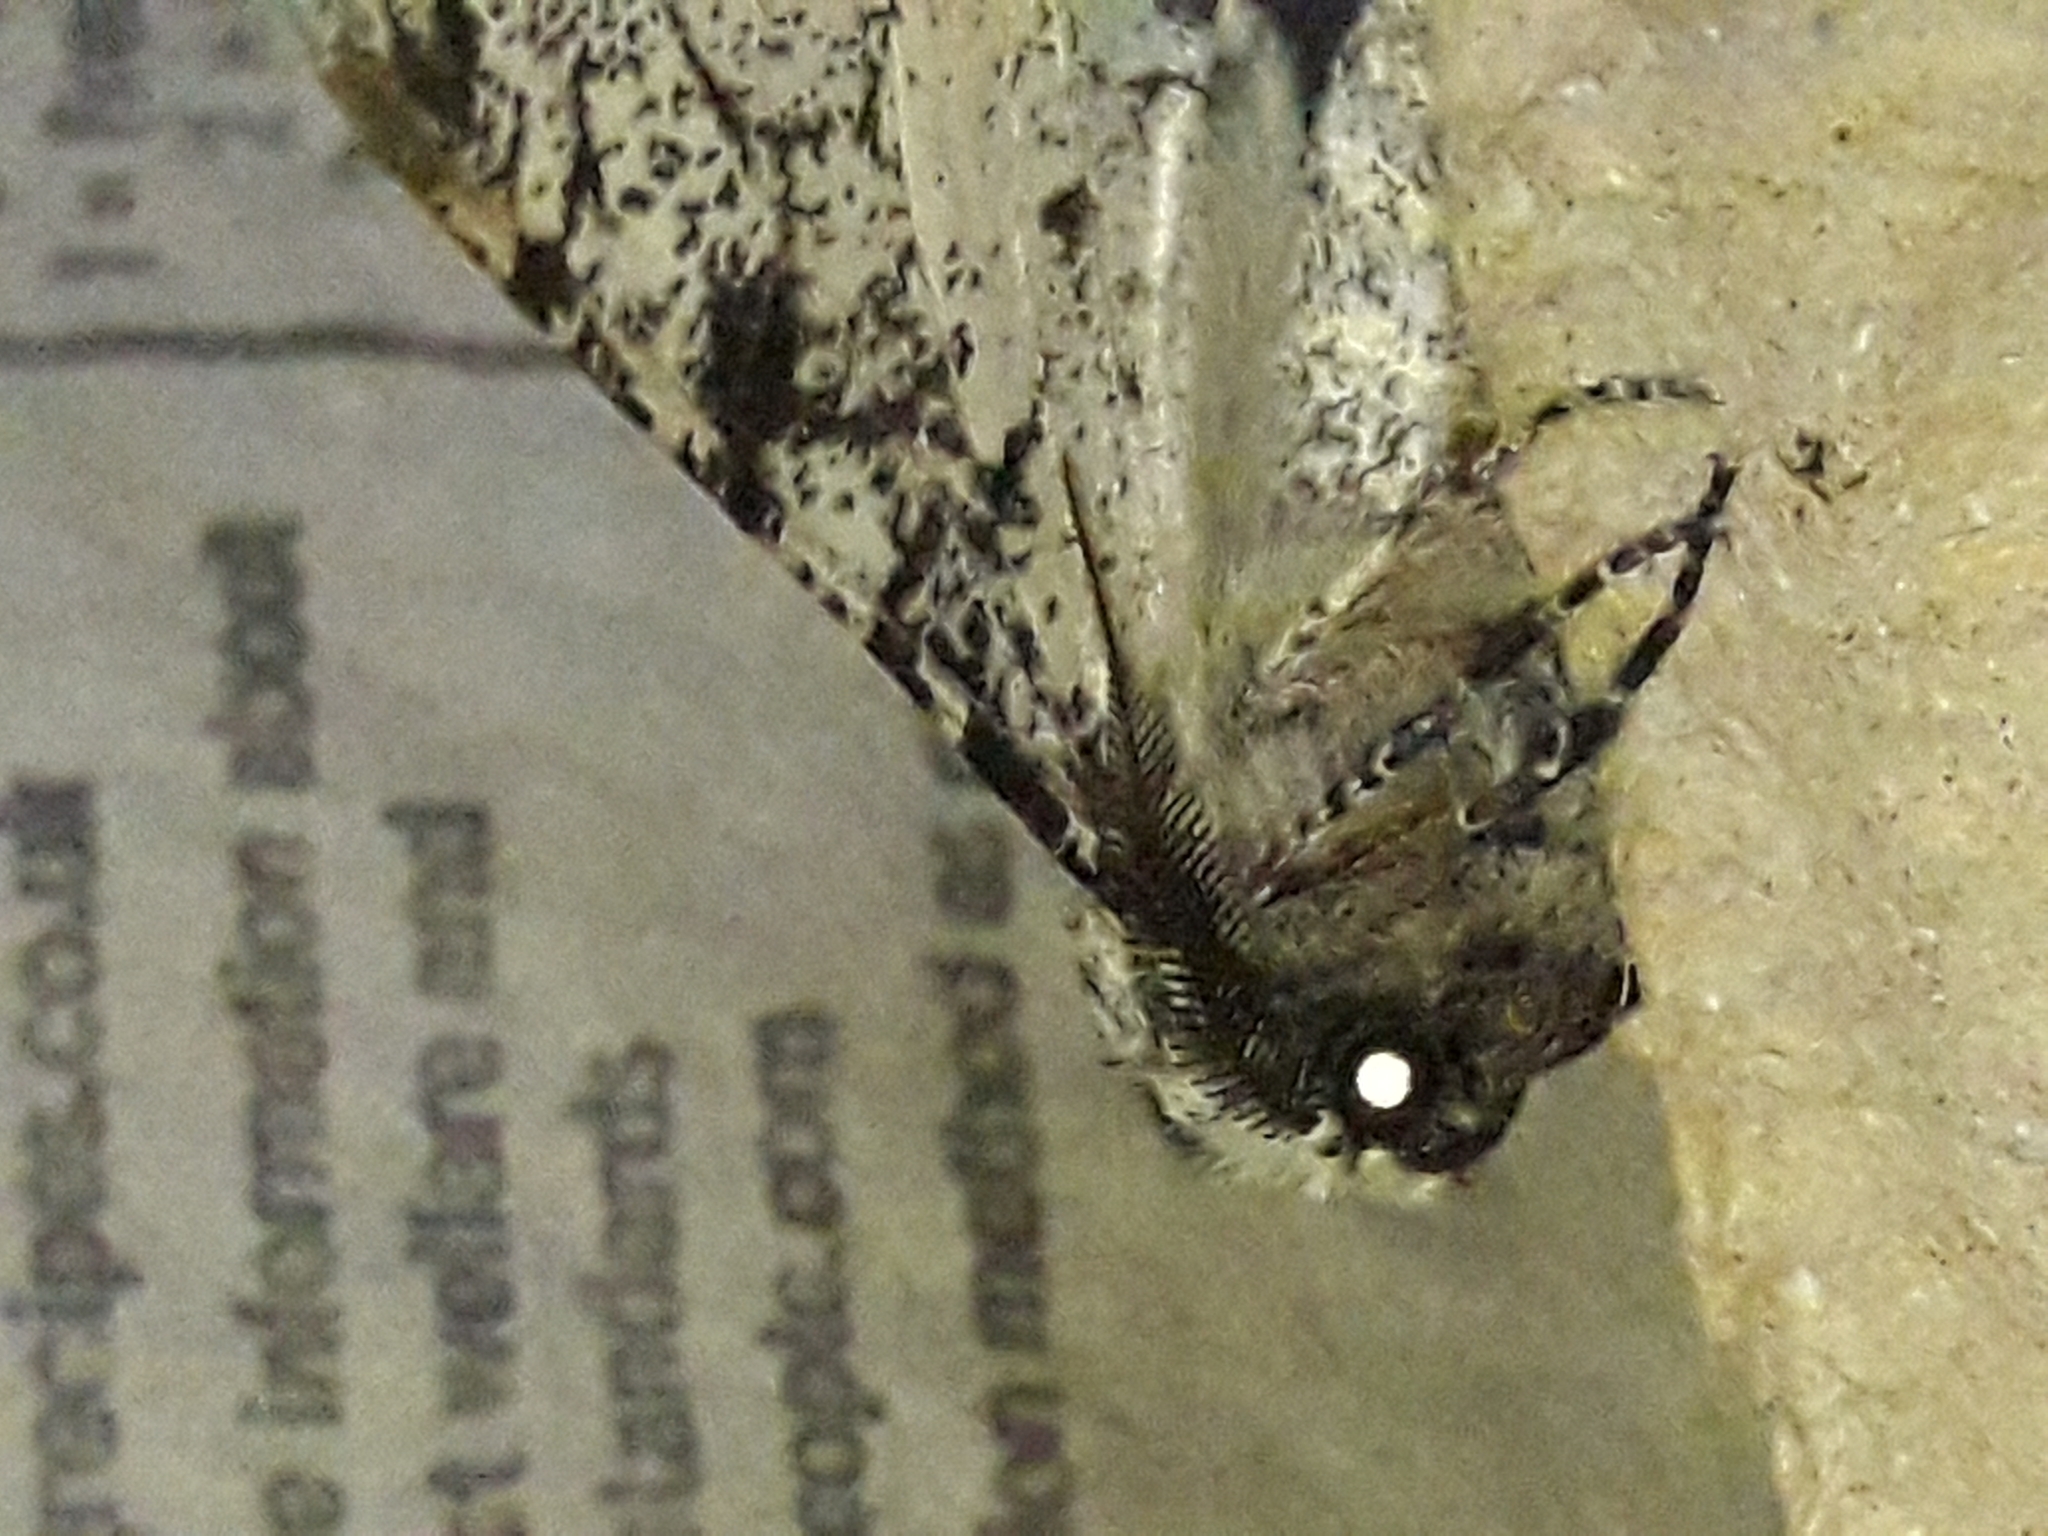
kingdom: Animalia
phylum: Arthropoda
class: Insecta
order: Lepidoptera
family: Geometridae
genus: Biston
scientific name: Biston betularia
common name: Peppered moth
